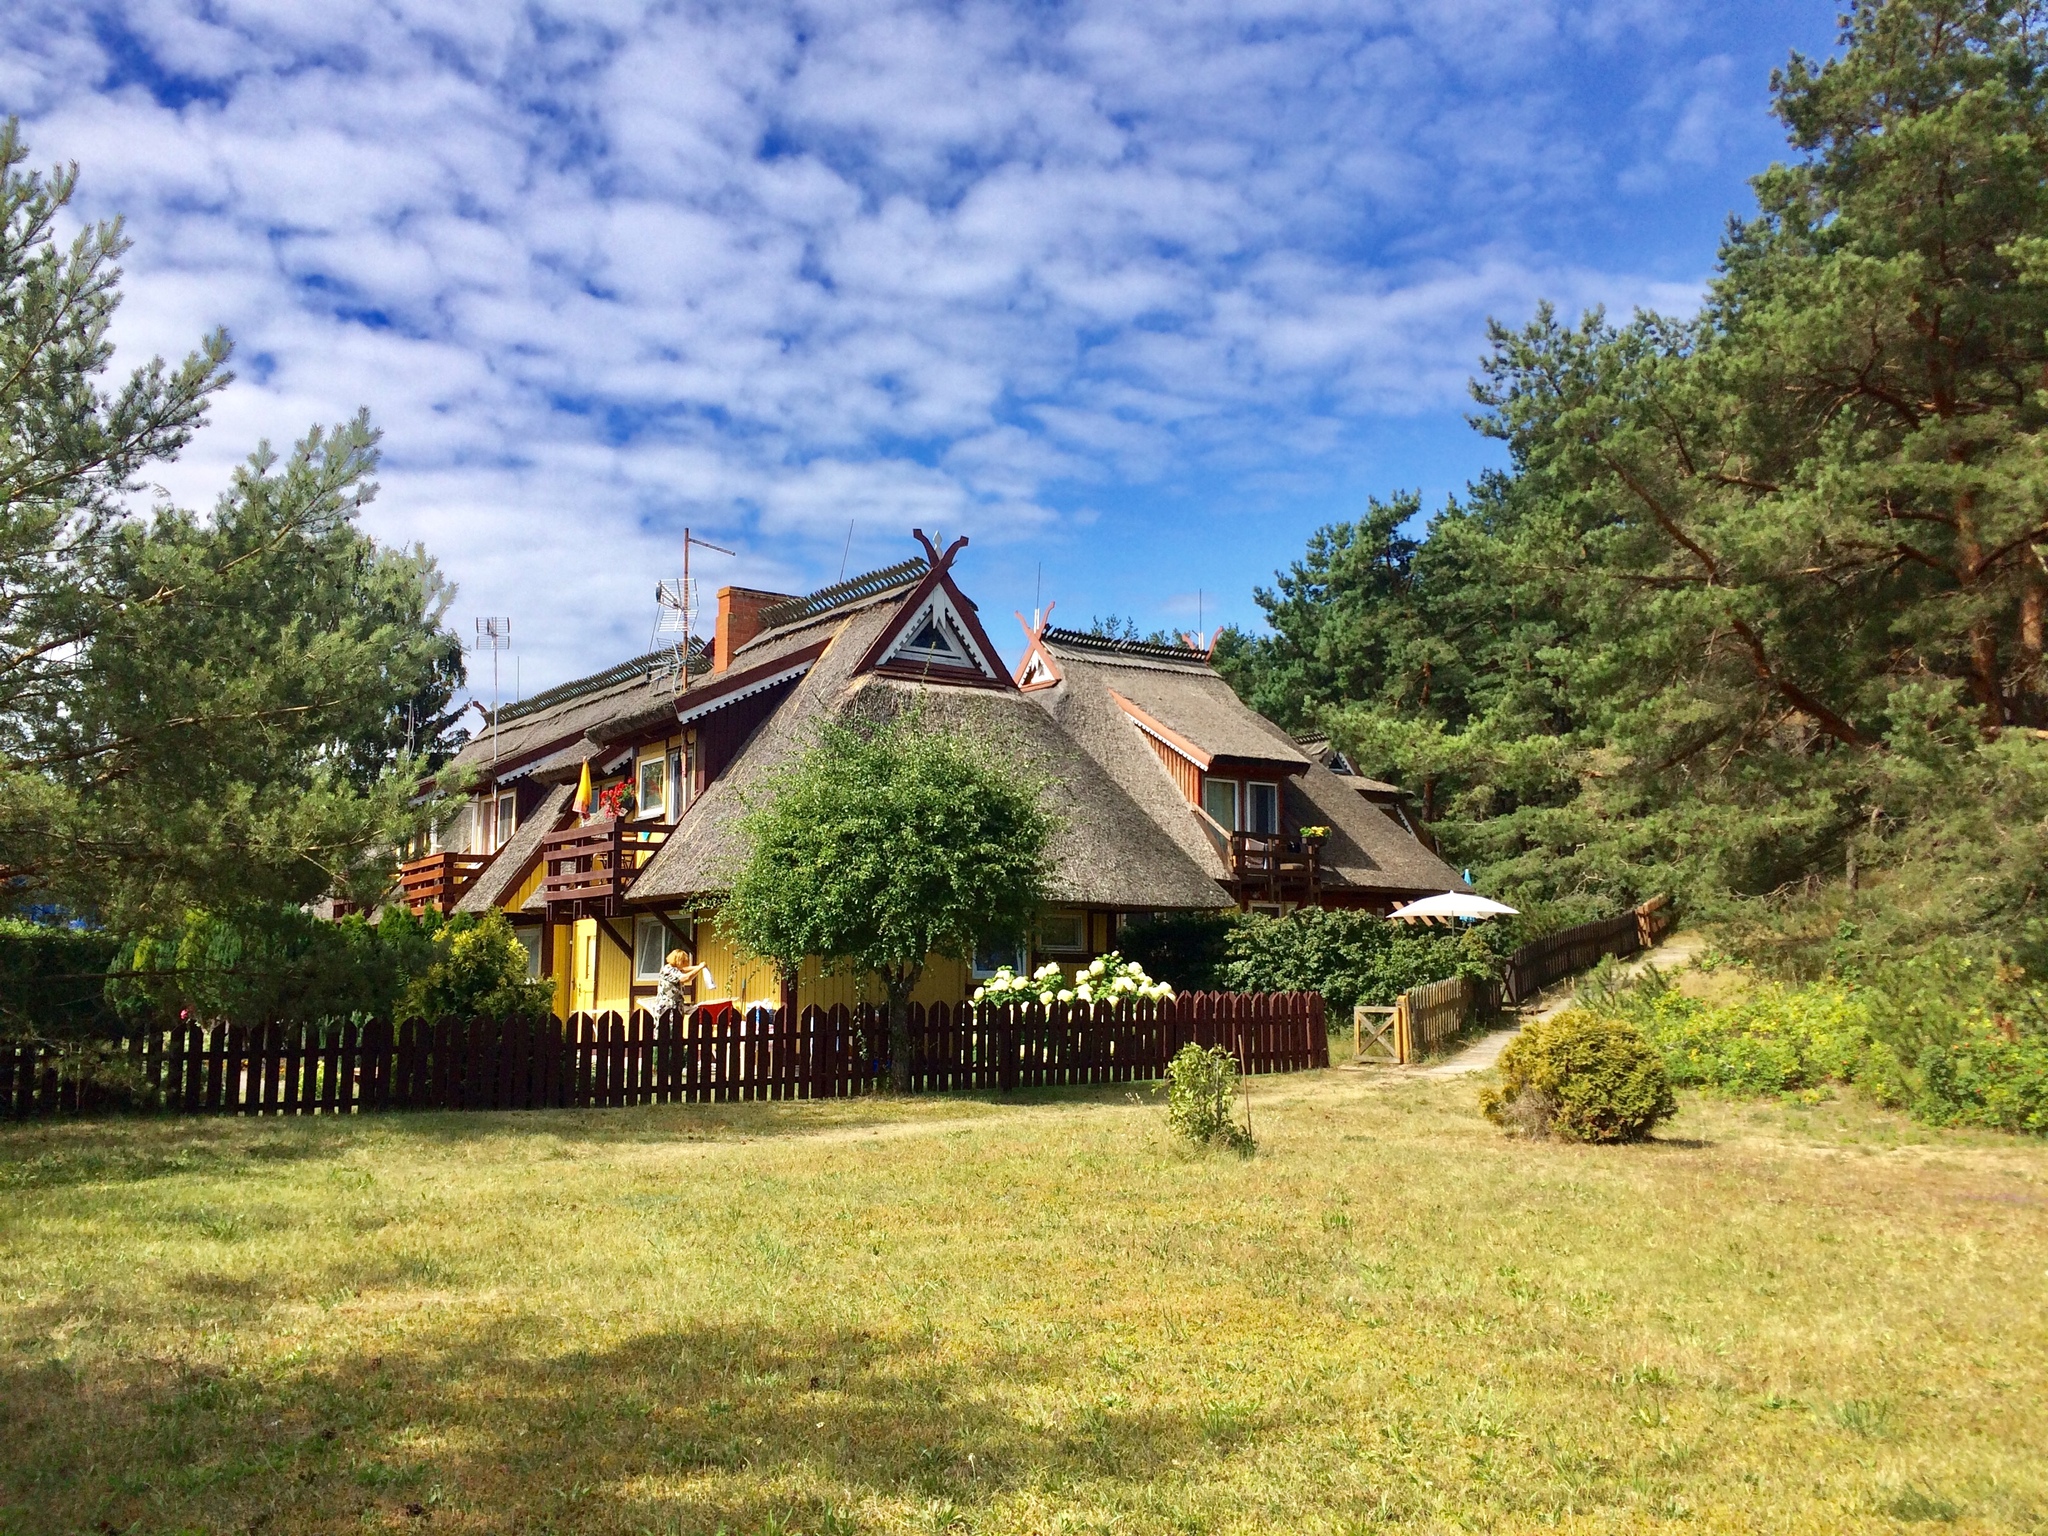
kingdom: Plantae
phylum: Tracheophyta
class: Pinopsida
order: Pinales
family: Pinaceae
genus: Pinus
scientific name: Pinus sylvestris
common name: Scots pine
